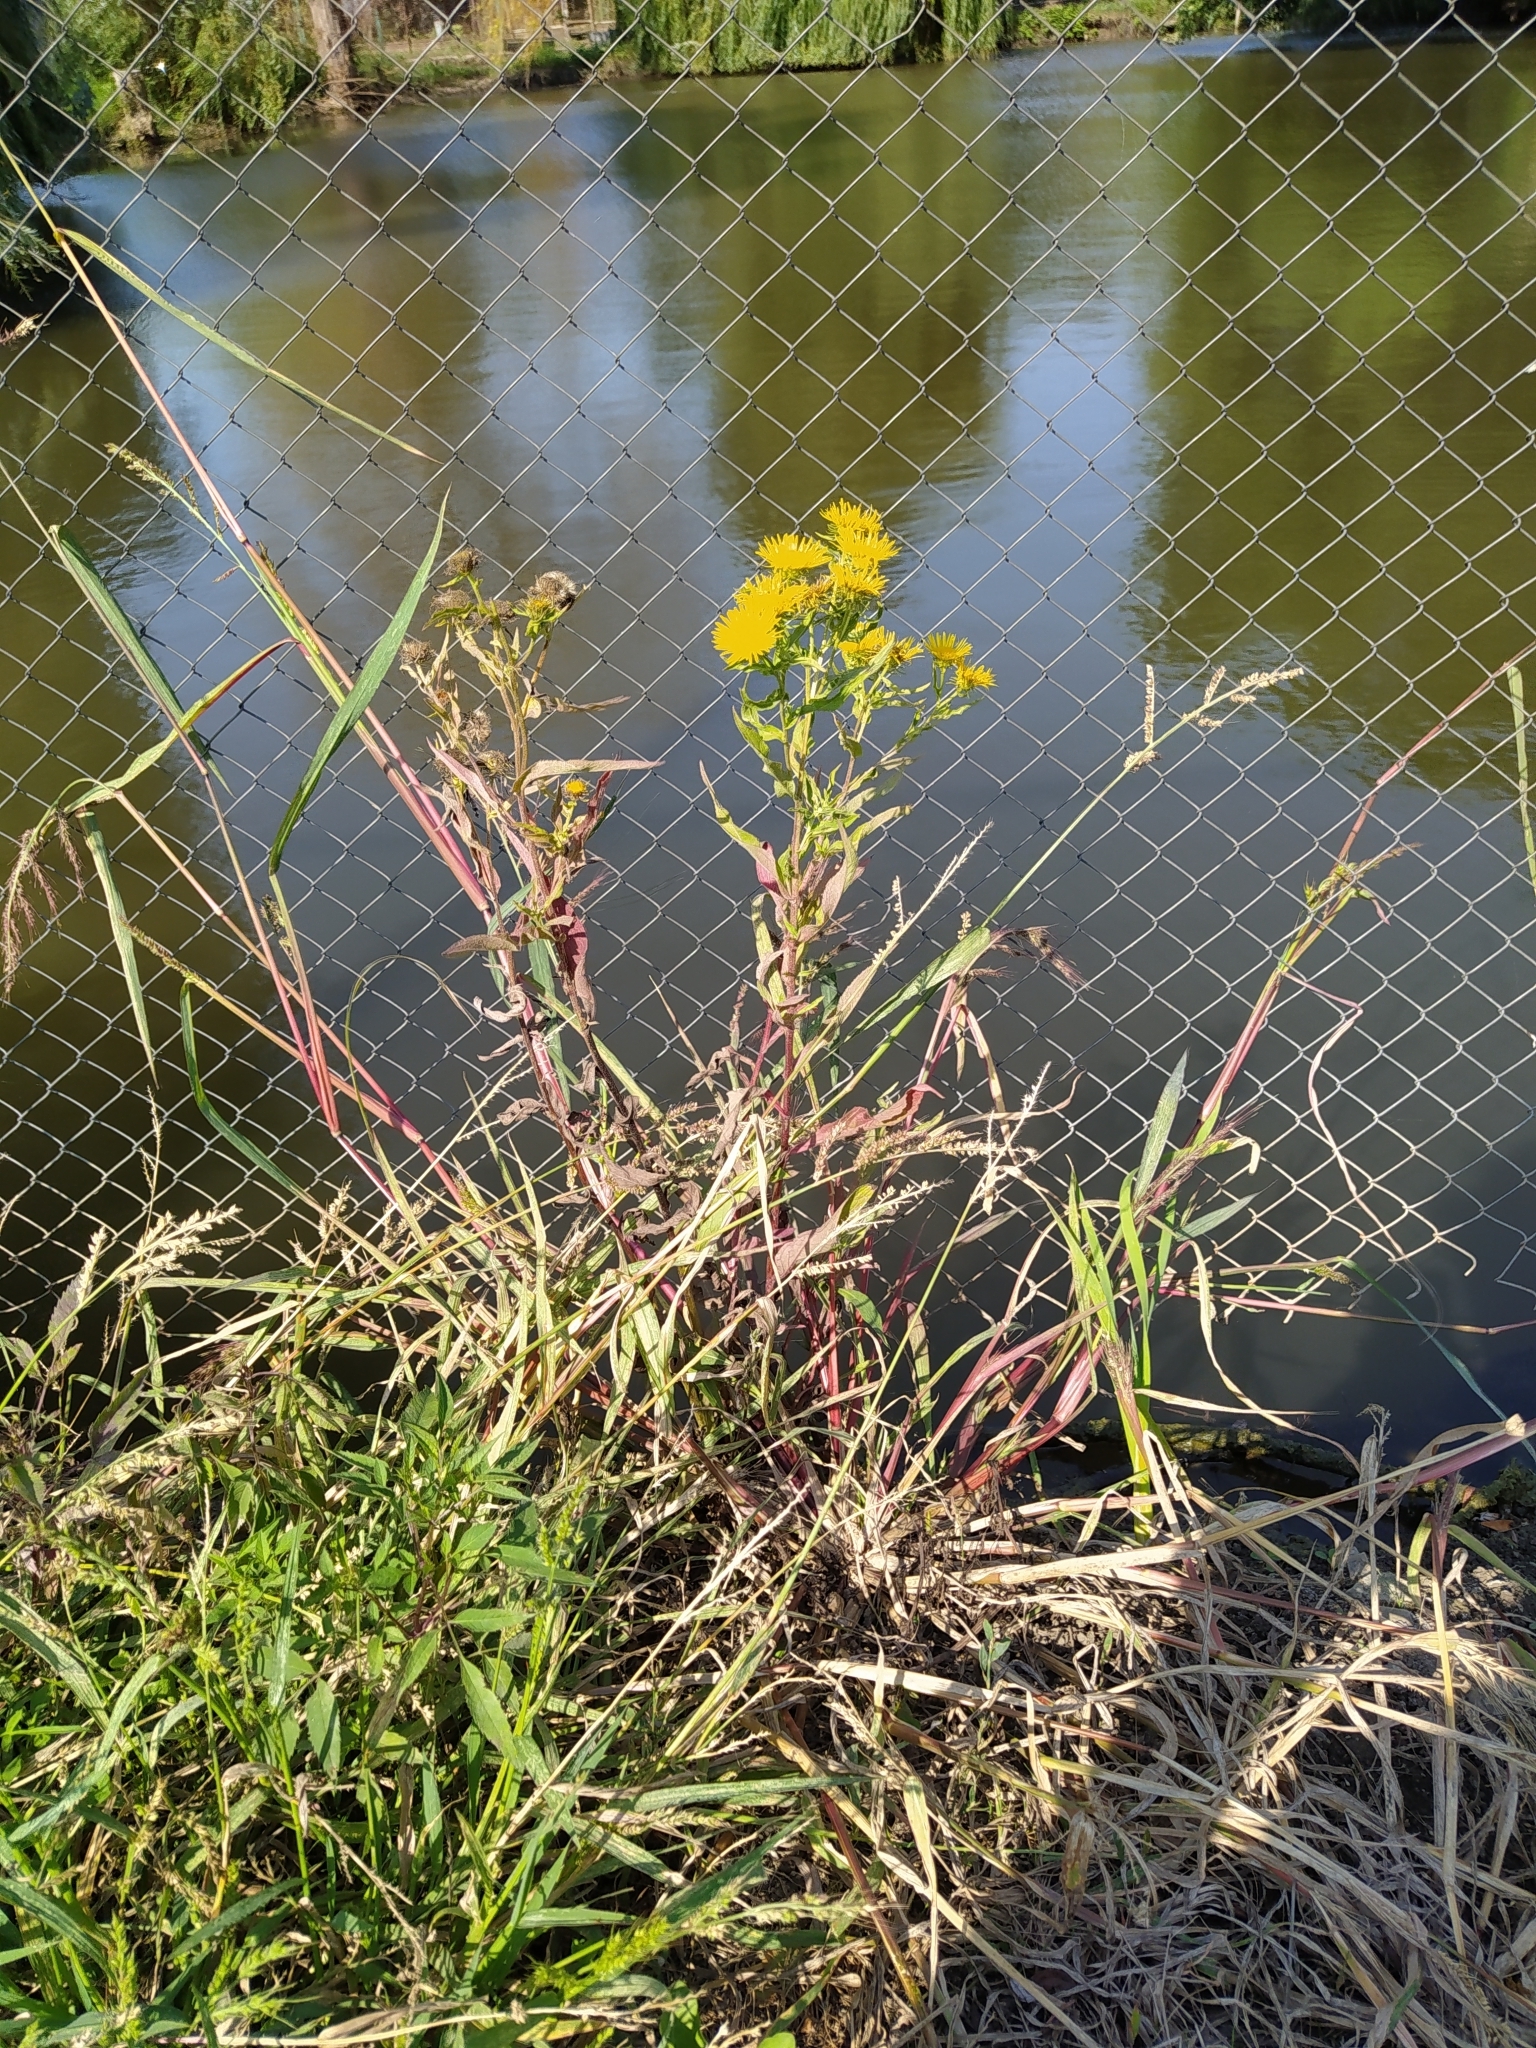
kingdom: Plantae
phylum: Tracheophyta
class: Magnoliopsida
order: Asterales
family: Asteraceae
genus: Pentanema
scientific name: Pentanema britannicum
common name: British elecampane
